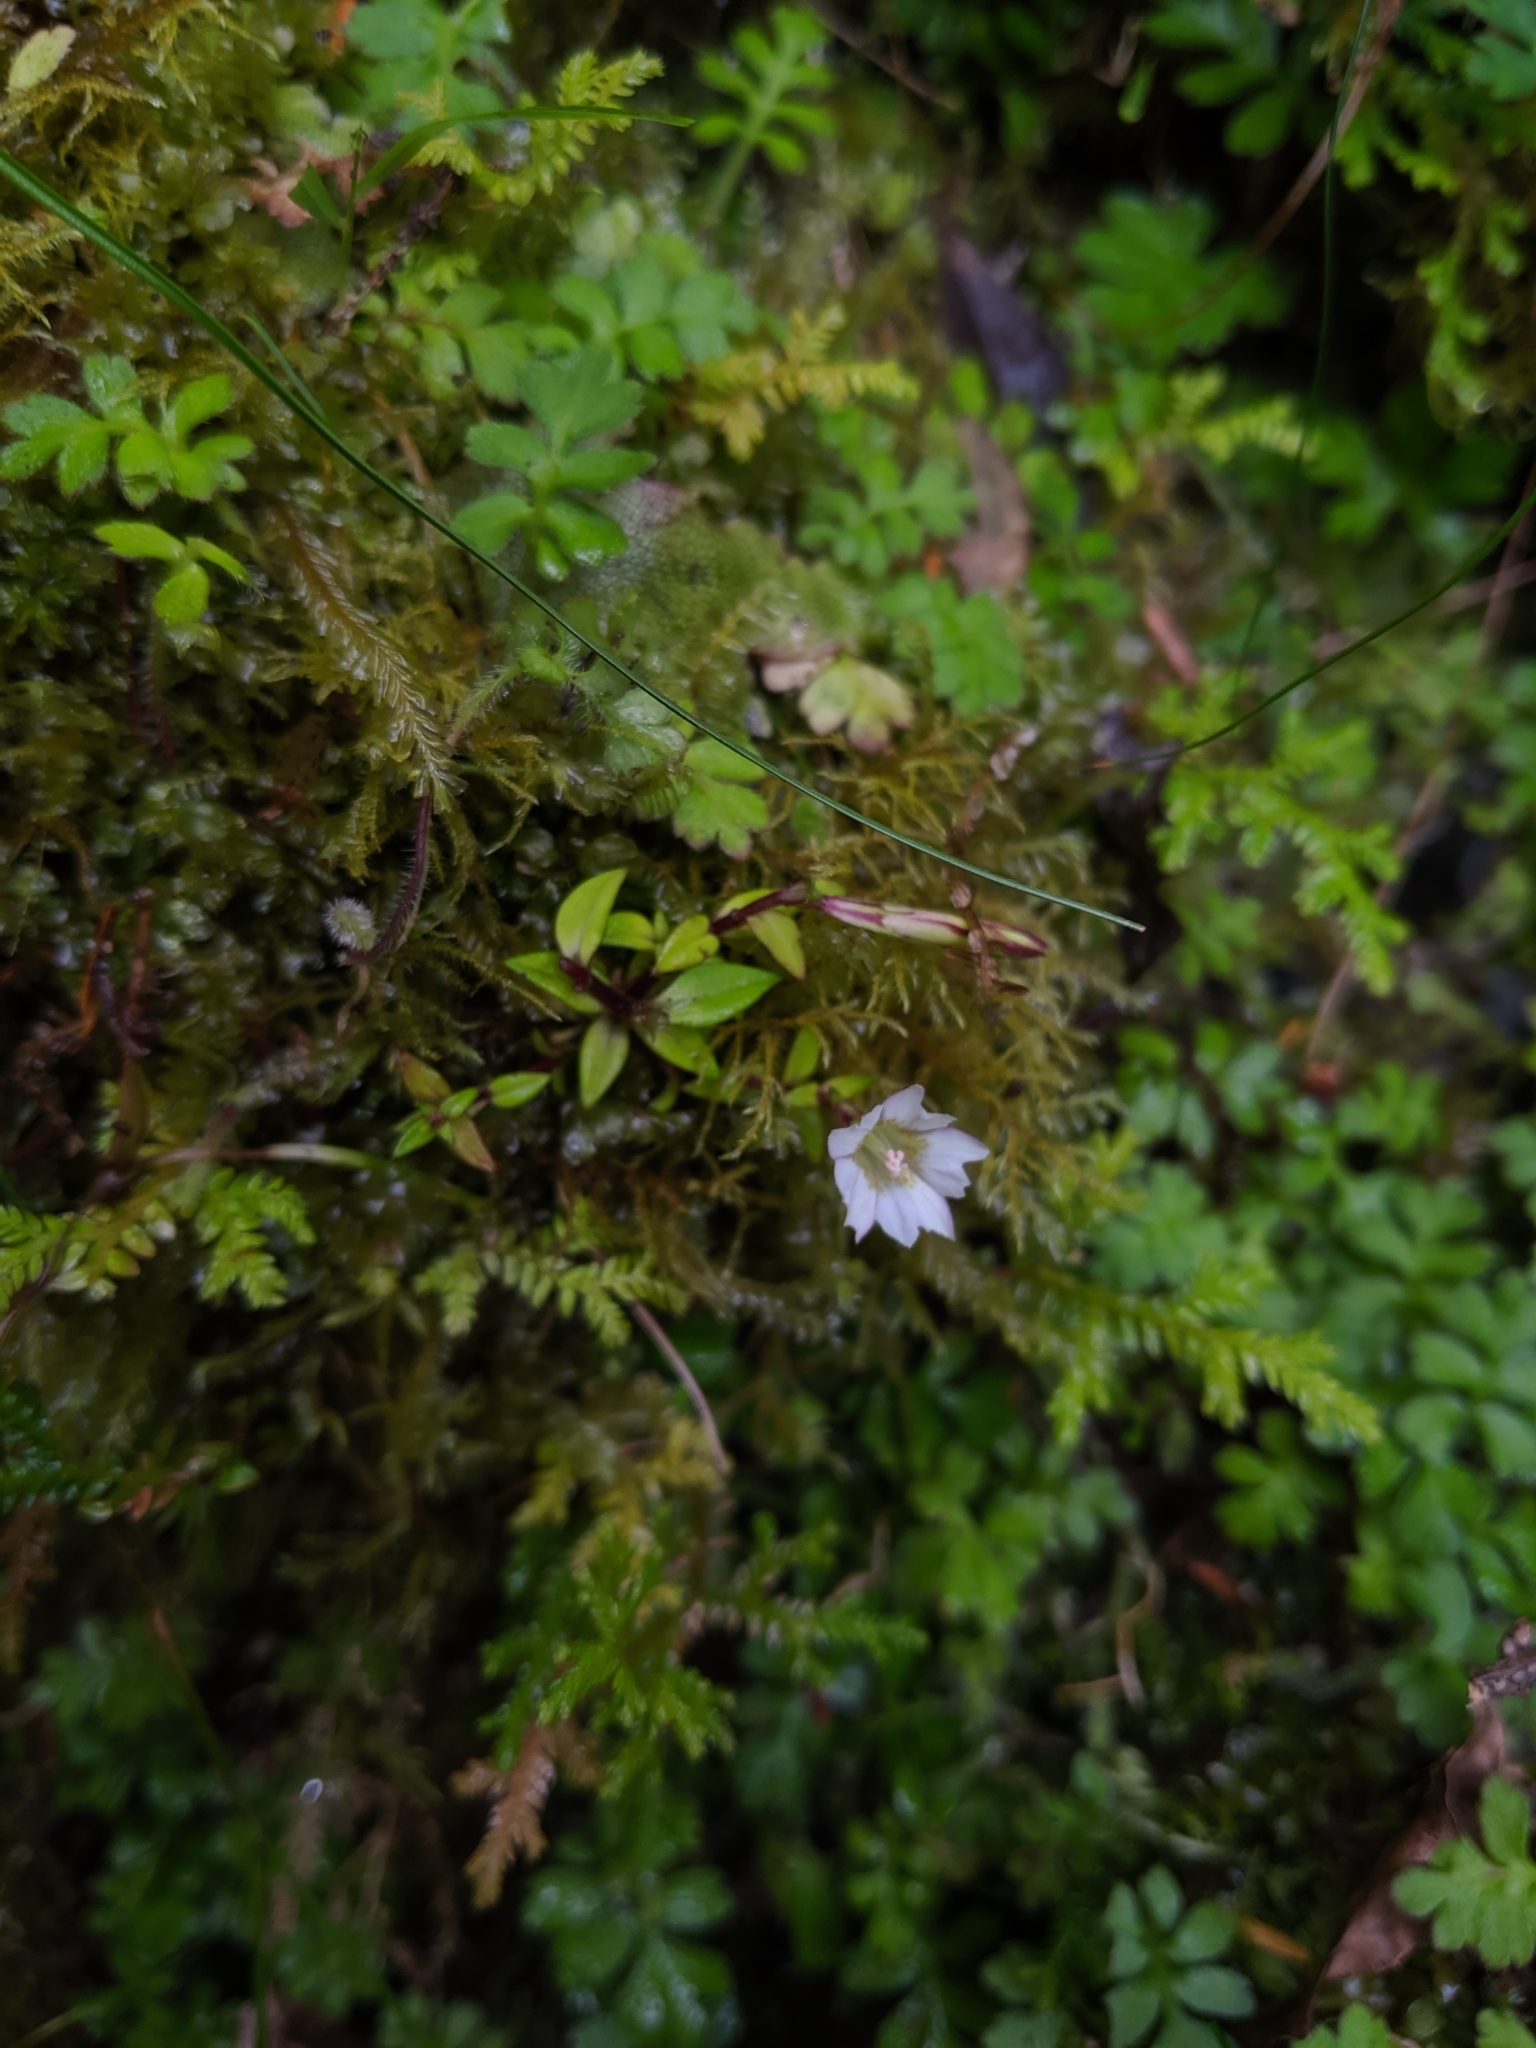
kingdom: Plantae
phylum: Tracheophyta
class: Magnoliopsida
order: Gentianales
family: Gentianaceae
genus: Gentiana
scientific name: Gentiana flavomaculata
